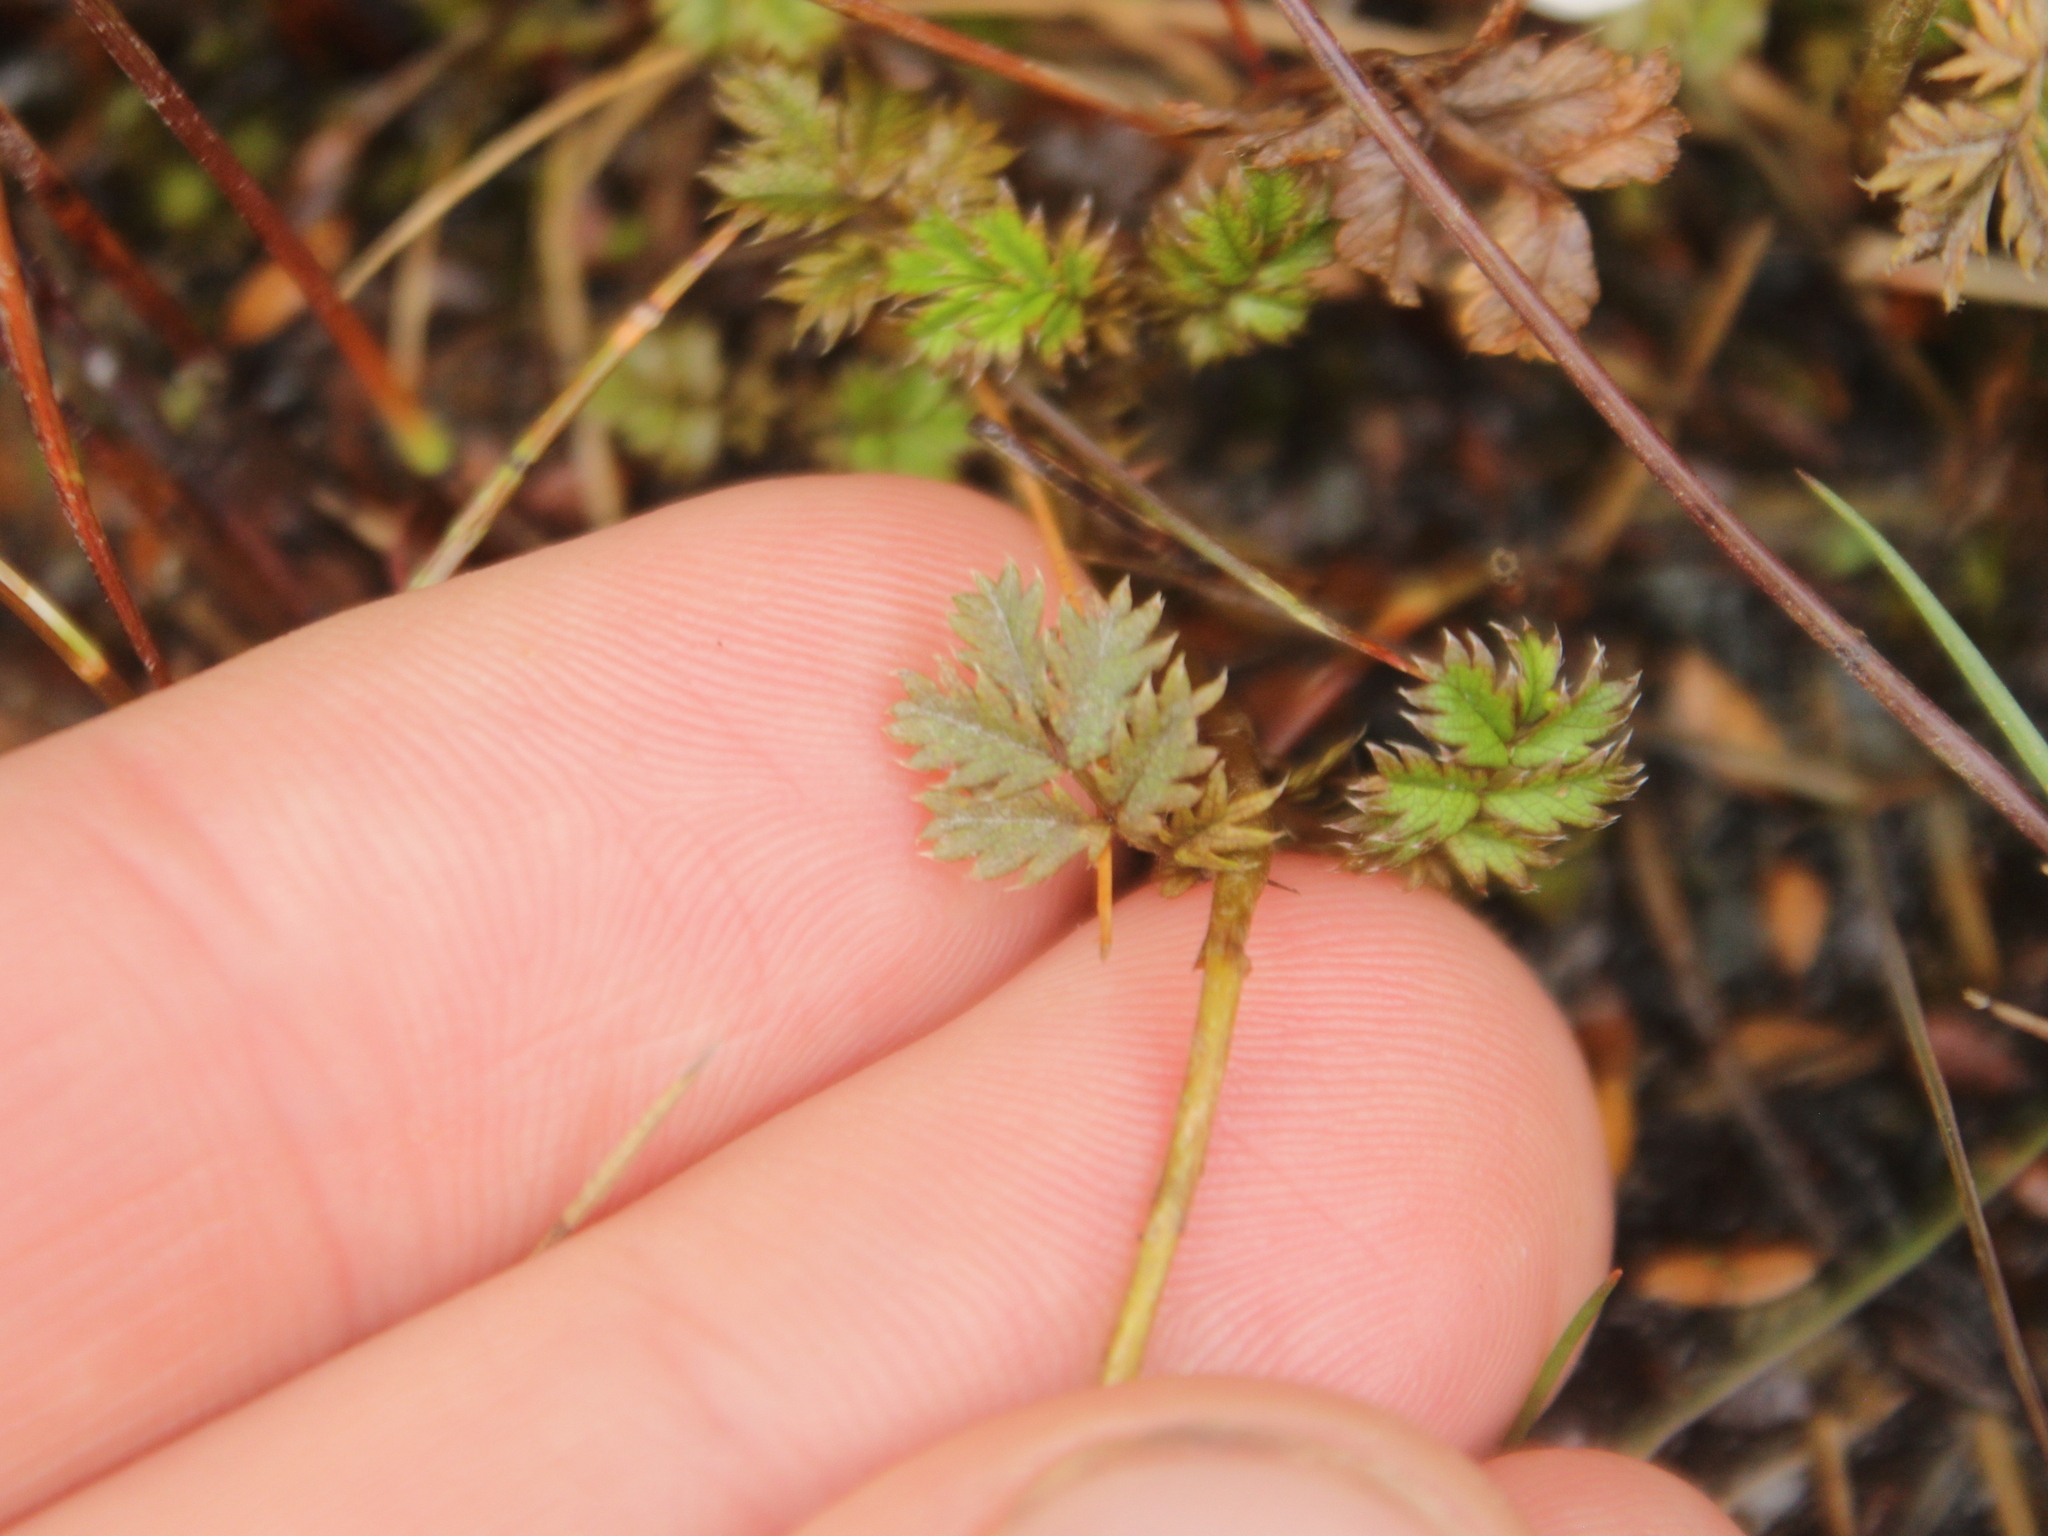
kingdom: Plantae
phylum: Tracheophyta
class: Magnoliopsida
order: Rosales
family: Rosaceae
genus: Acaena
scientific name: Acaena anserinifolia
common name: Bronze pirri-pirri-bur
